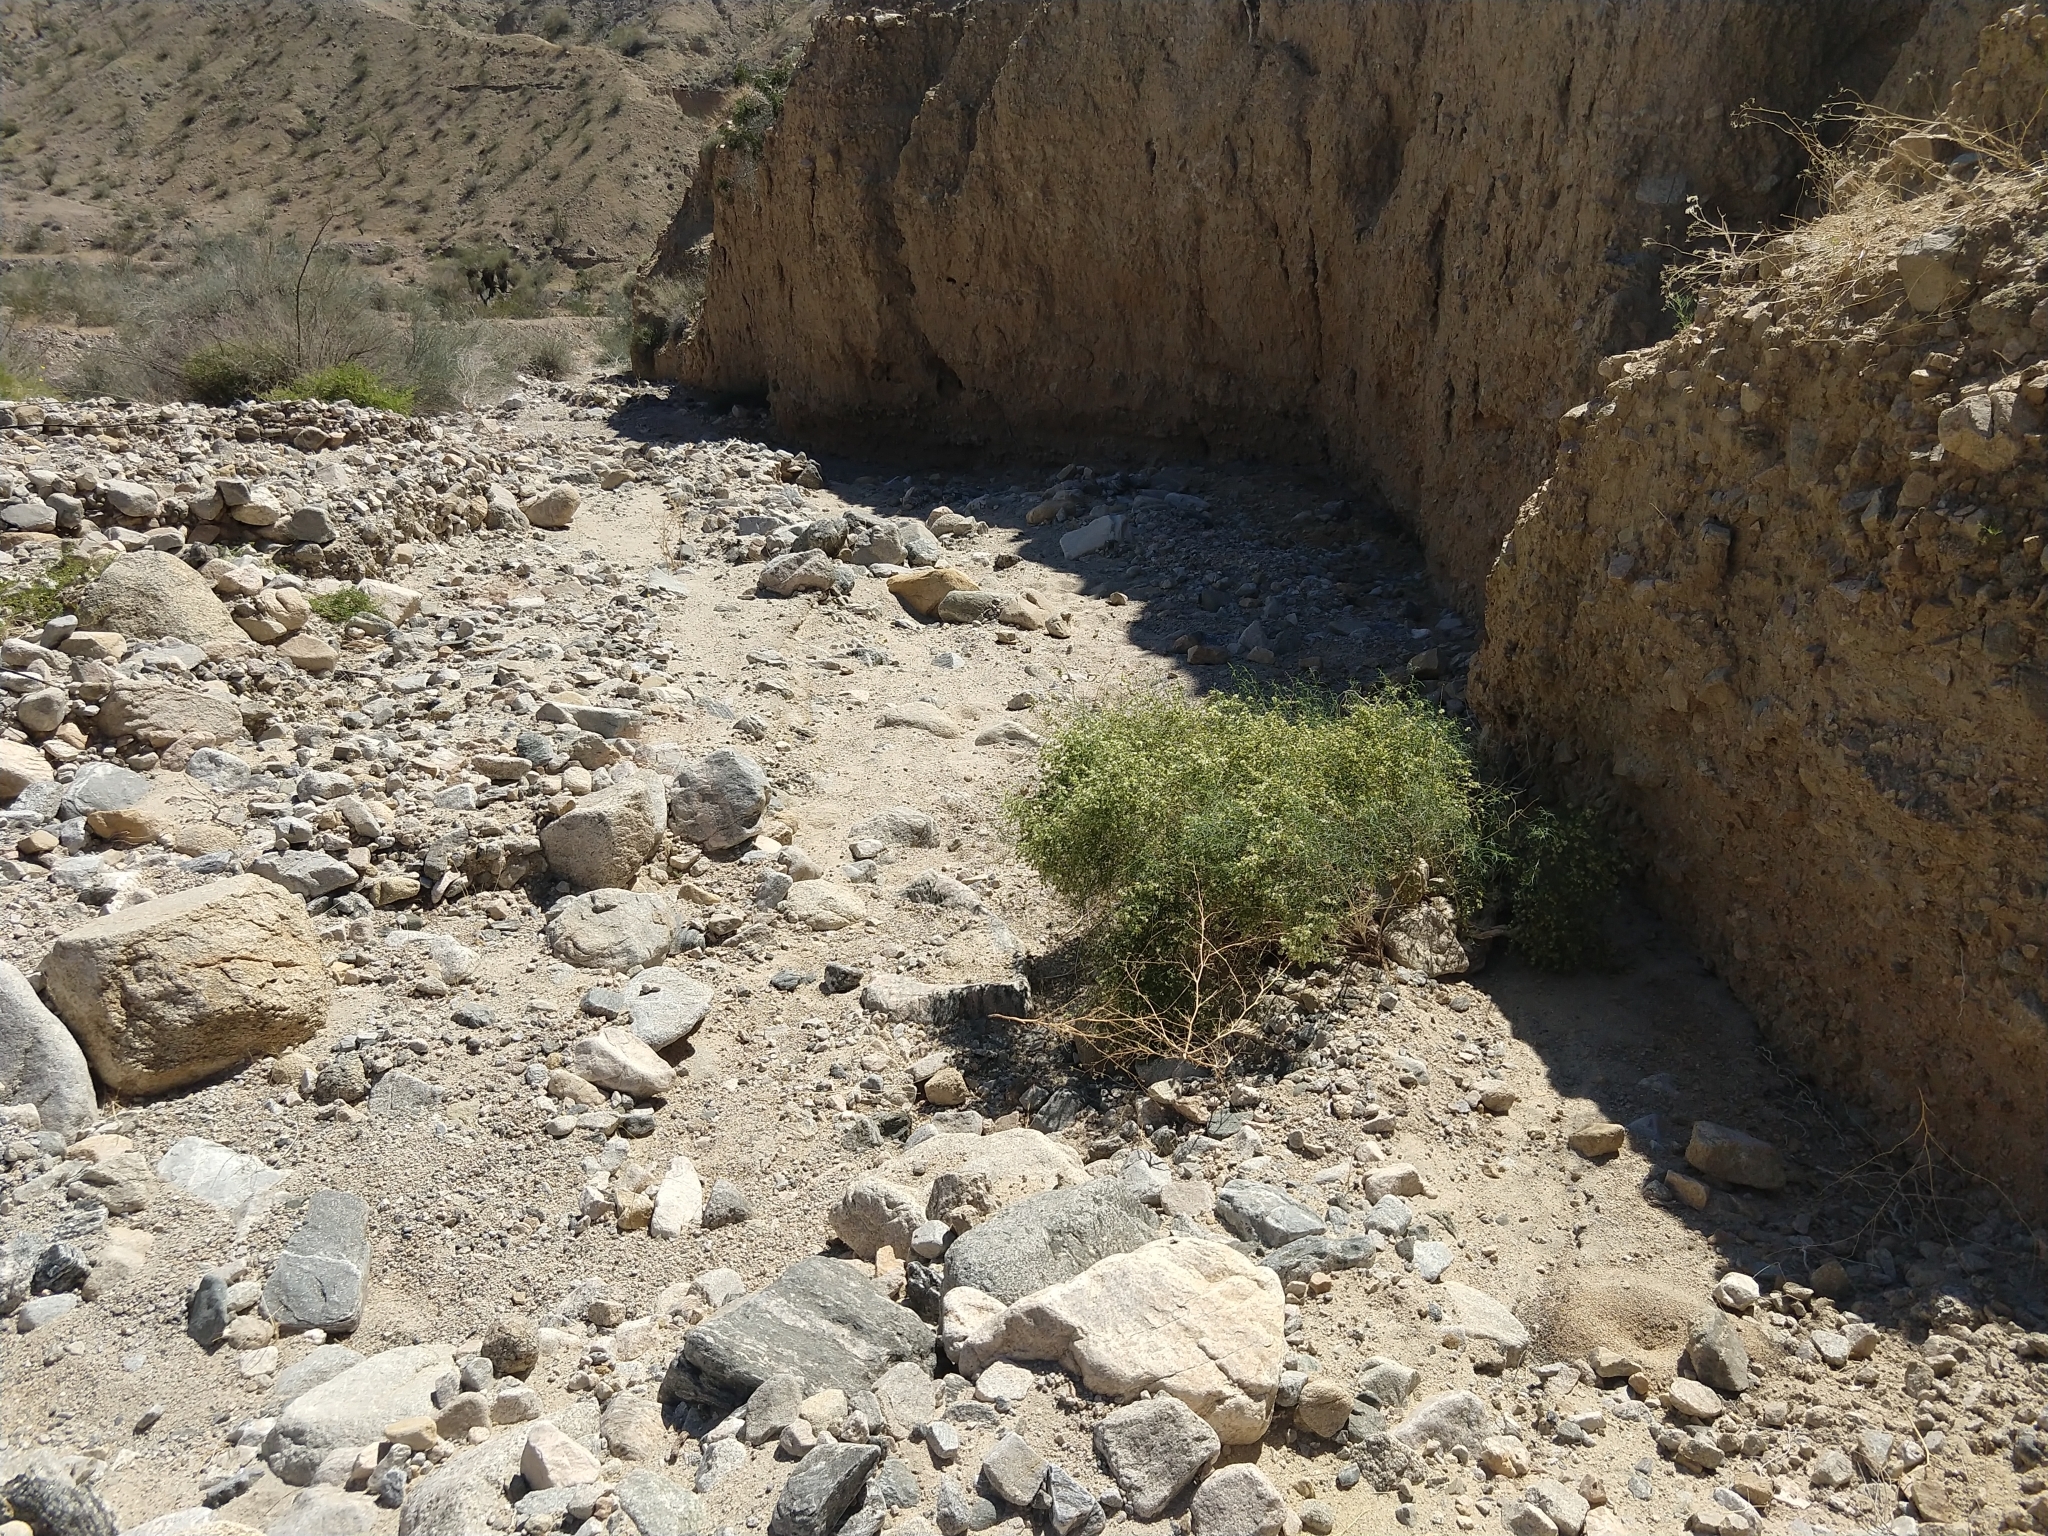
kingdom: Plantae
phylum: Tracheophyta
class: Magnoliopsida
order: Asterales
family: Asteraceae
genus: Ambrosia
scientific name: Ambrosia salsola
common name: Burrobrush
